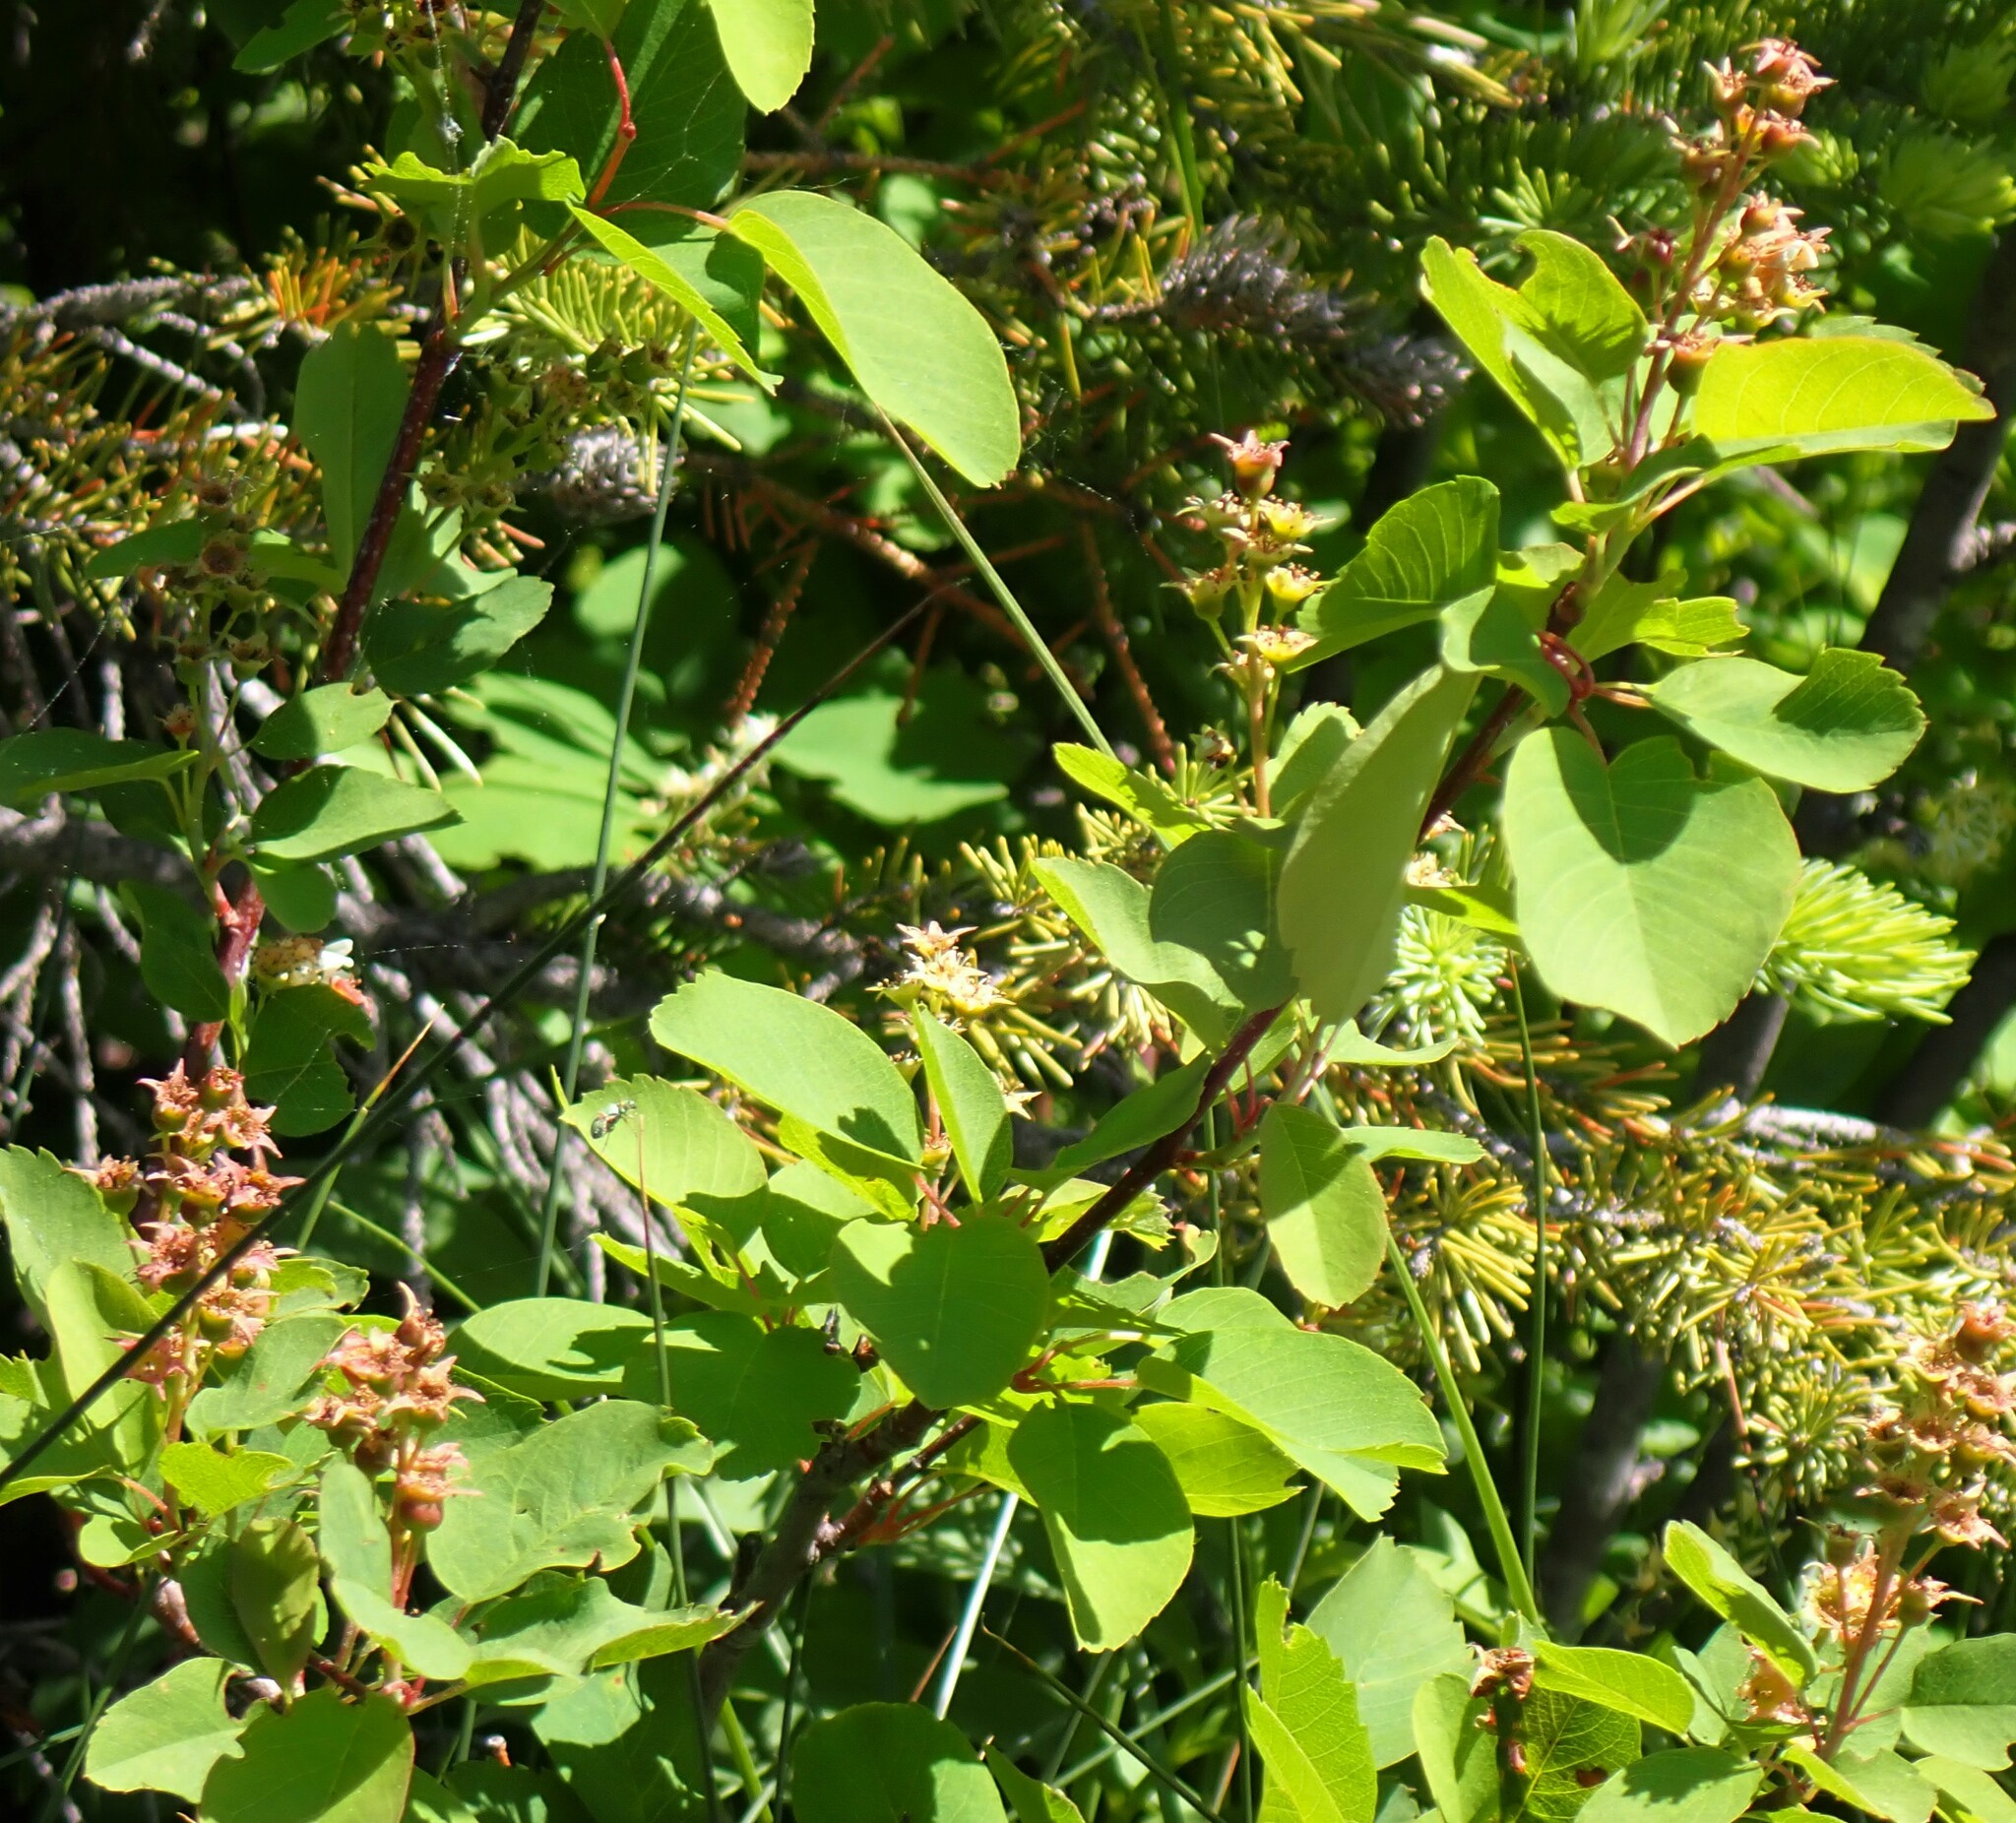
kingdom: Plantae
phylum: Tracheophyta
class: Magnoliopsida
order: Rosales
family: Rosaceae
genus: Amelanchier
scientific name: Amelanchier alnifolia
